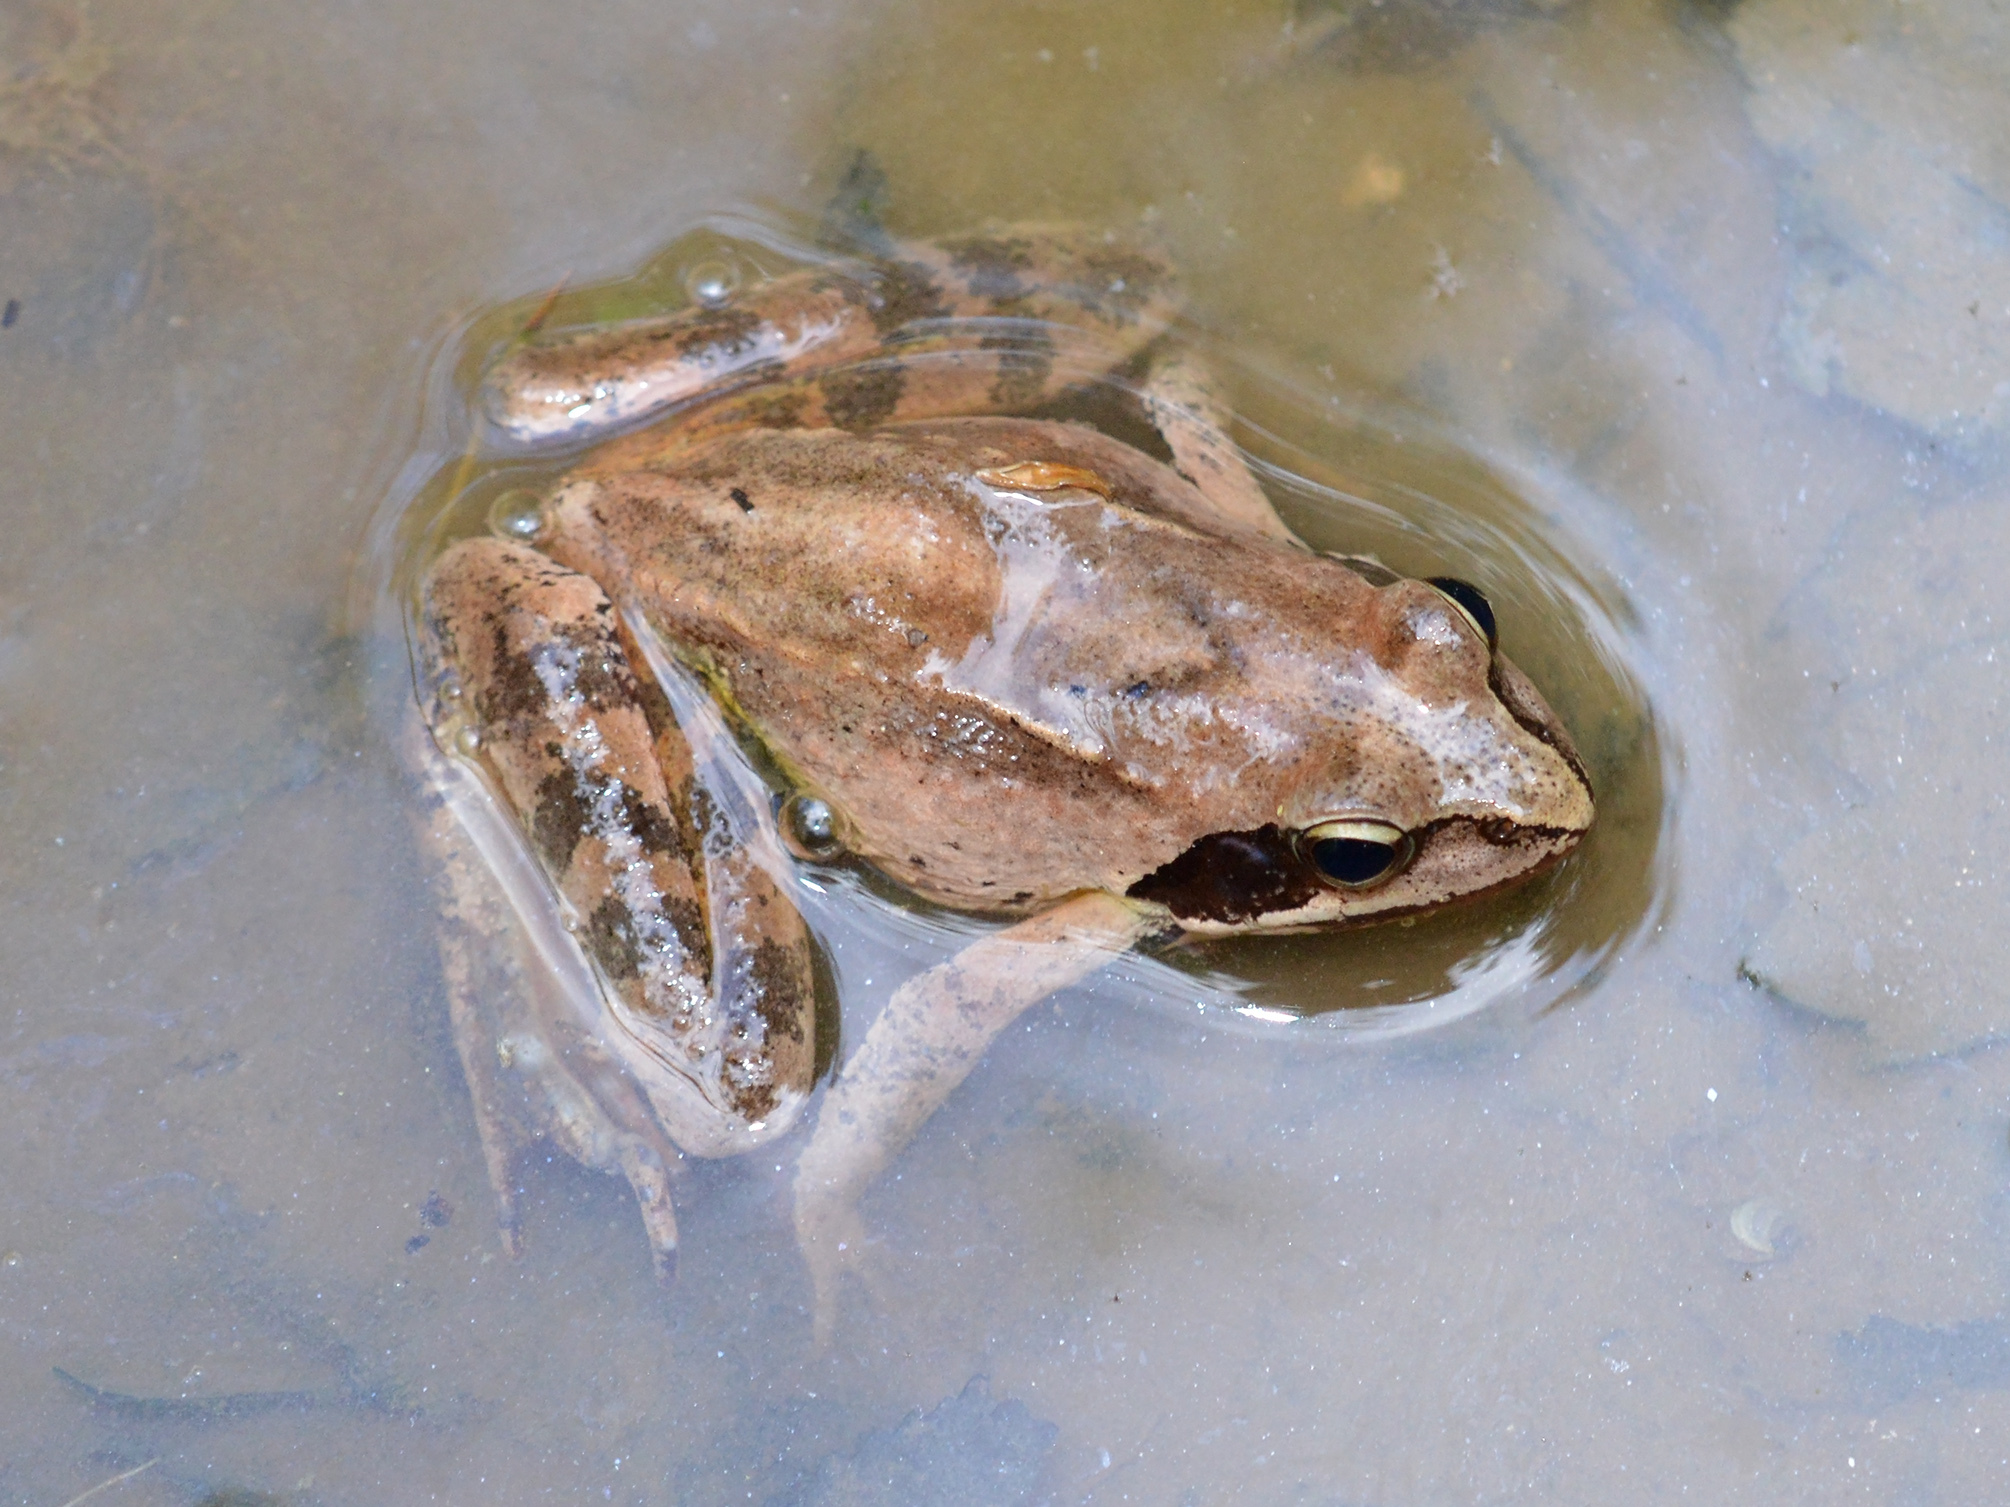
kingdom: Animalia
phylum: Chordata
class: Amphibia
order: Anura
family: Ranidae
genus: Rana
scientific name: Rana dalmatina
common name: Agile frog
